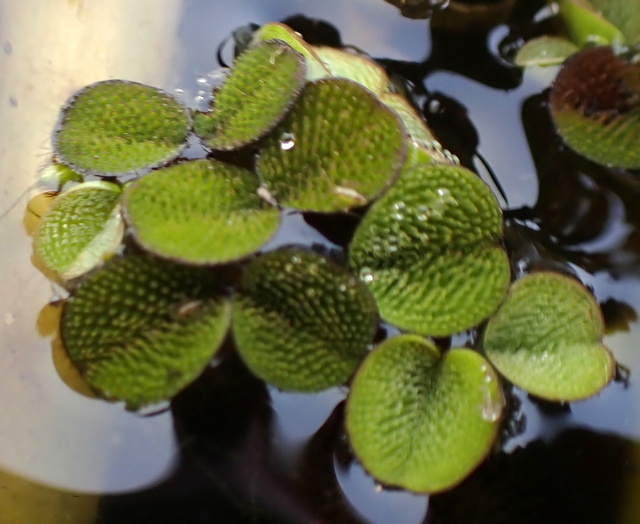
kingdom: Plantae
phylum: Tracheophyta
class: Polypodiopsida
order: Salviniales
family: Salviniaceae
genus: Salvinia
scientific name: Salvinia minima
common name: Water spangles
